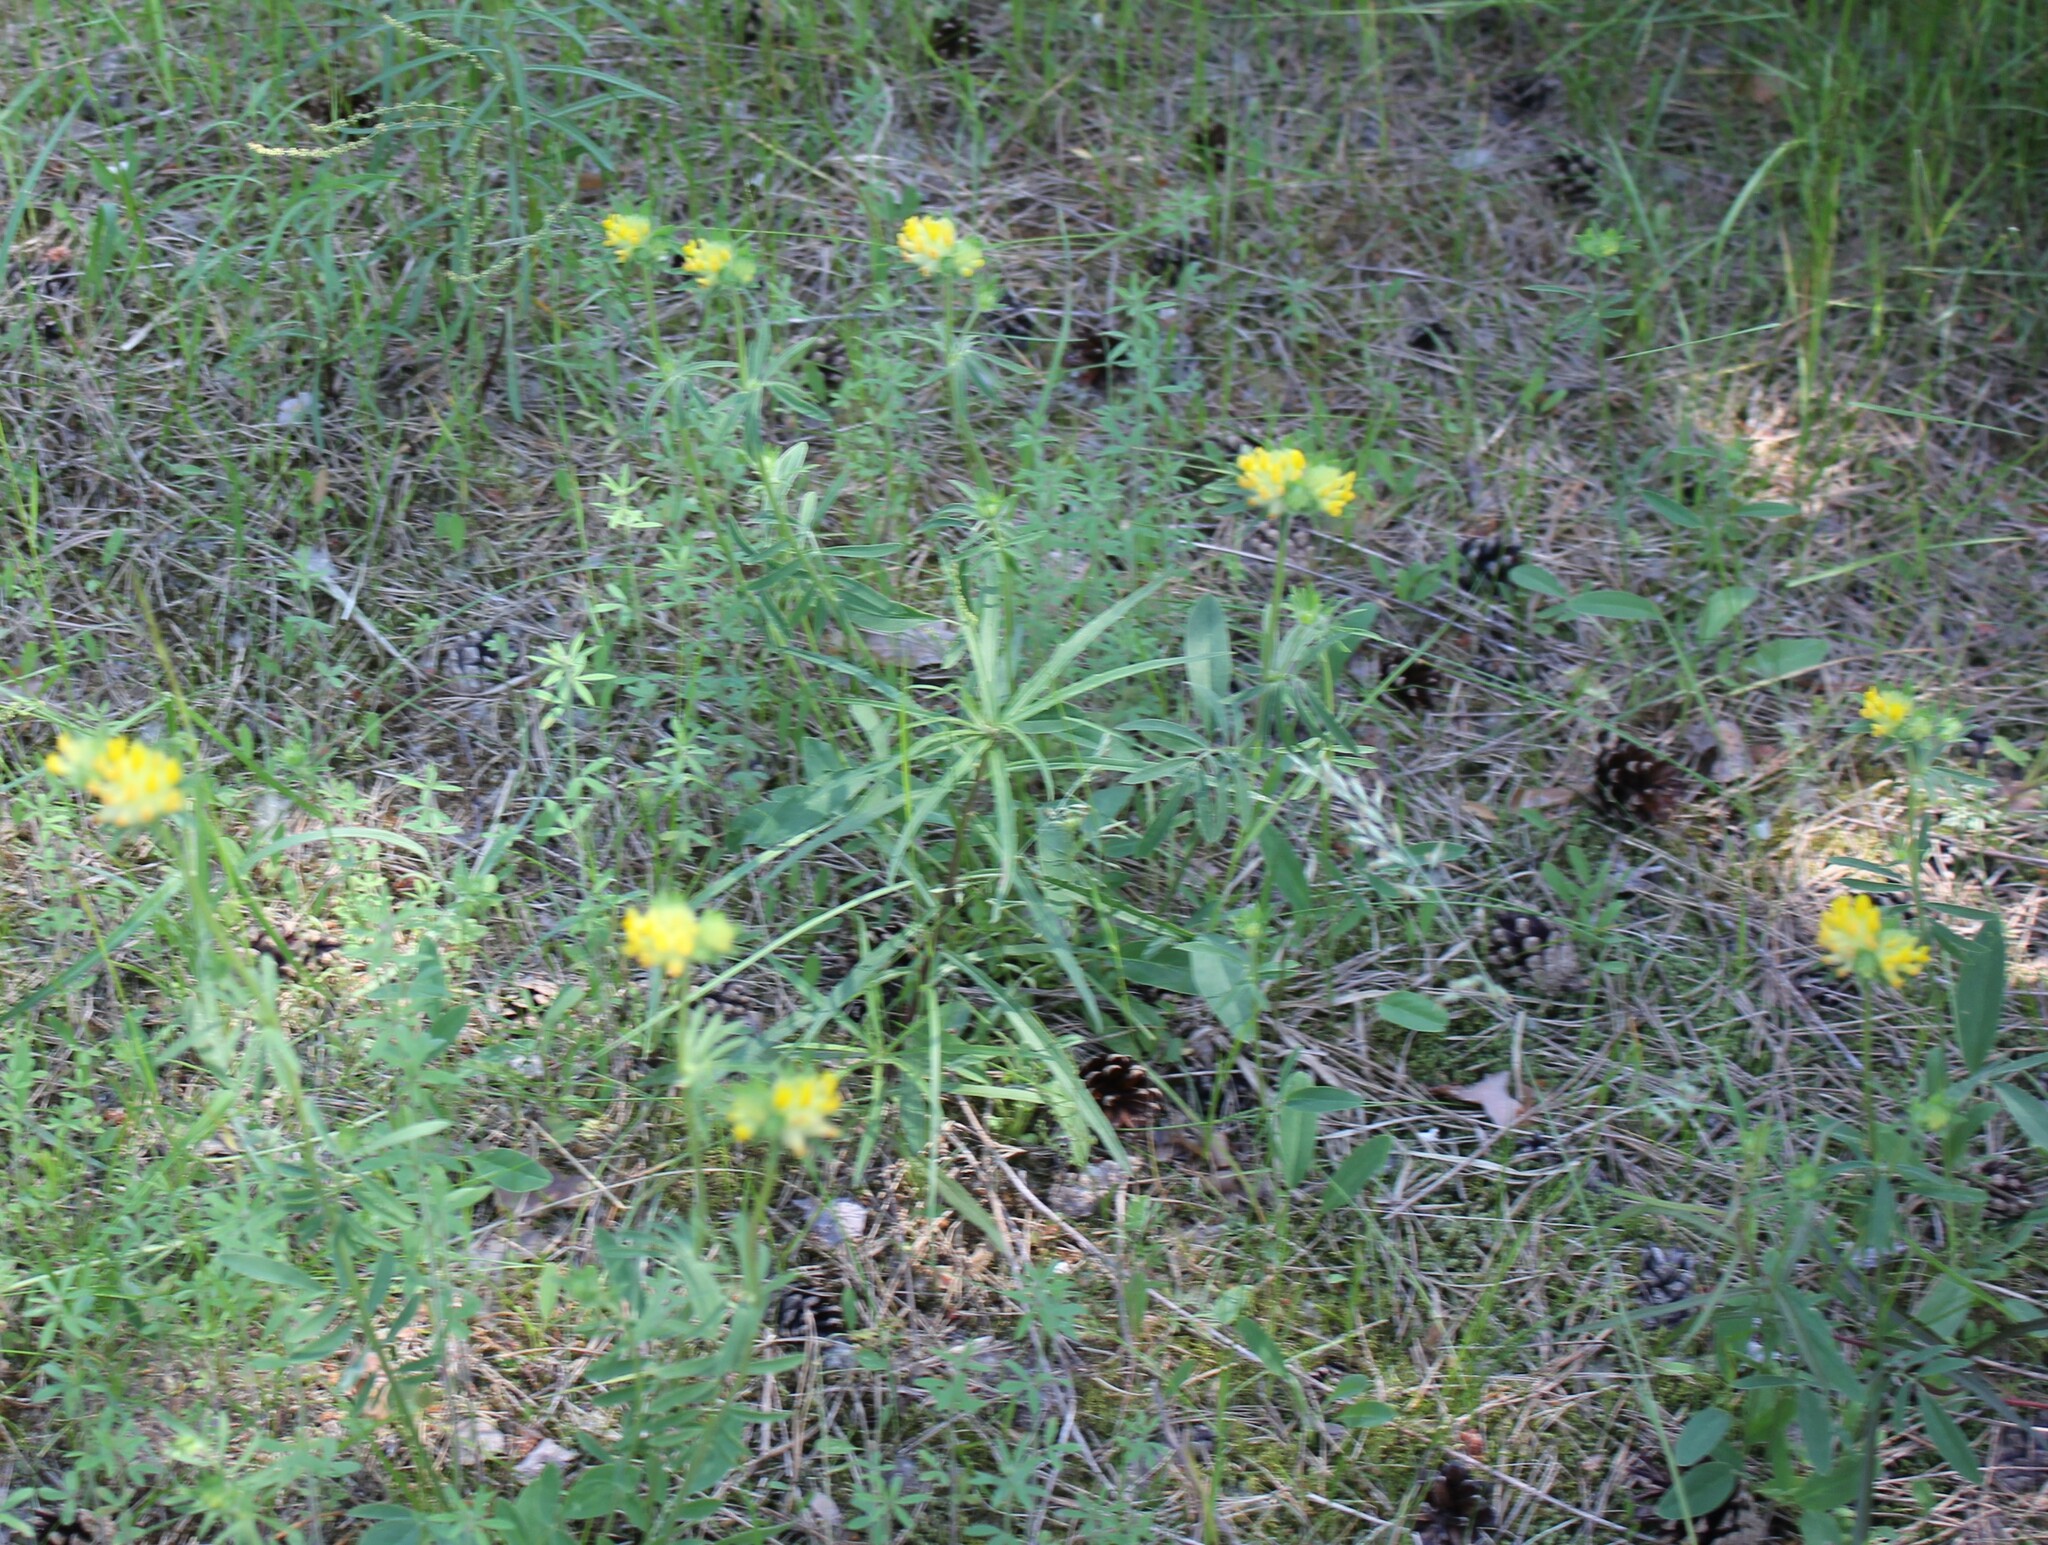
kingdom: Plantae
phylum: Tracheophyta
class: Magnoliopsida
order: Fabales
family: Fabaceae
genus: Anthyllis
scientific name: Anthyllis vulneraria
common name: Kidney vetch
